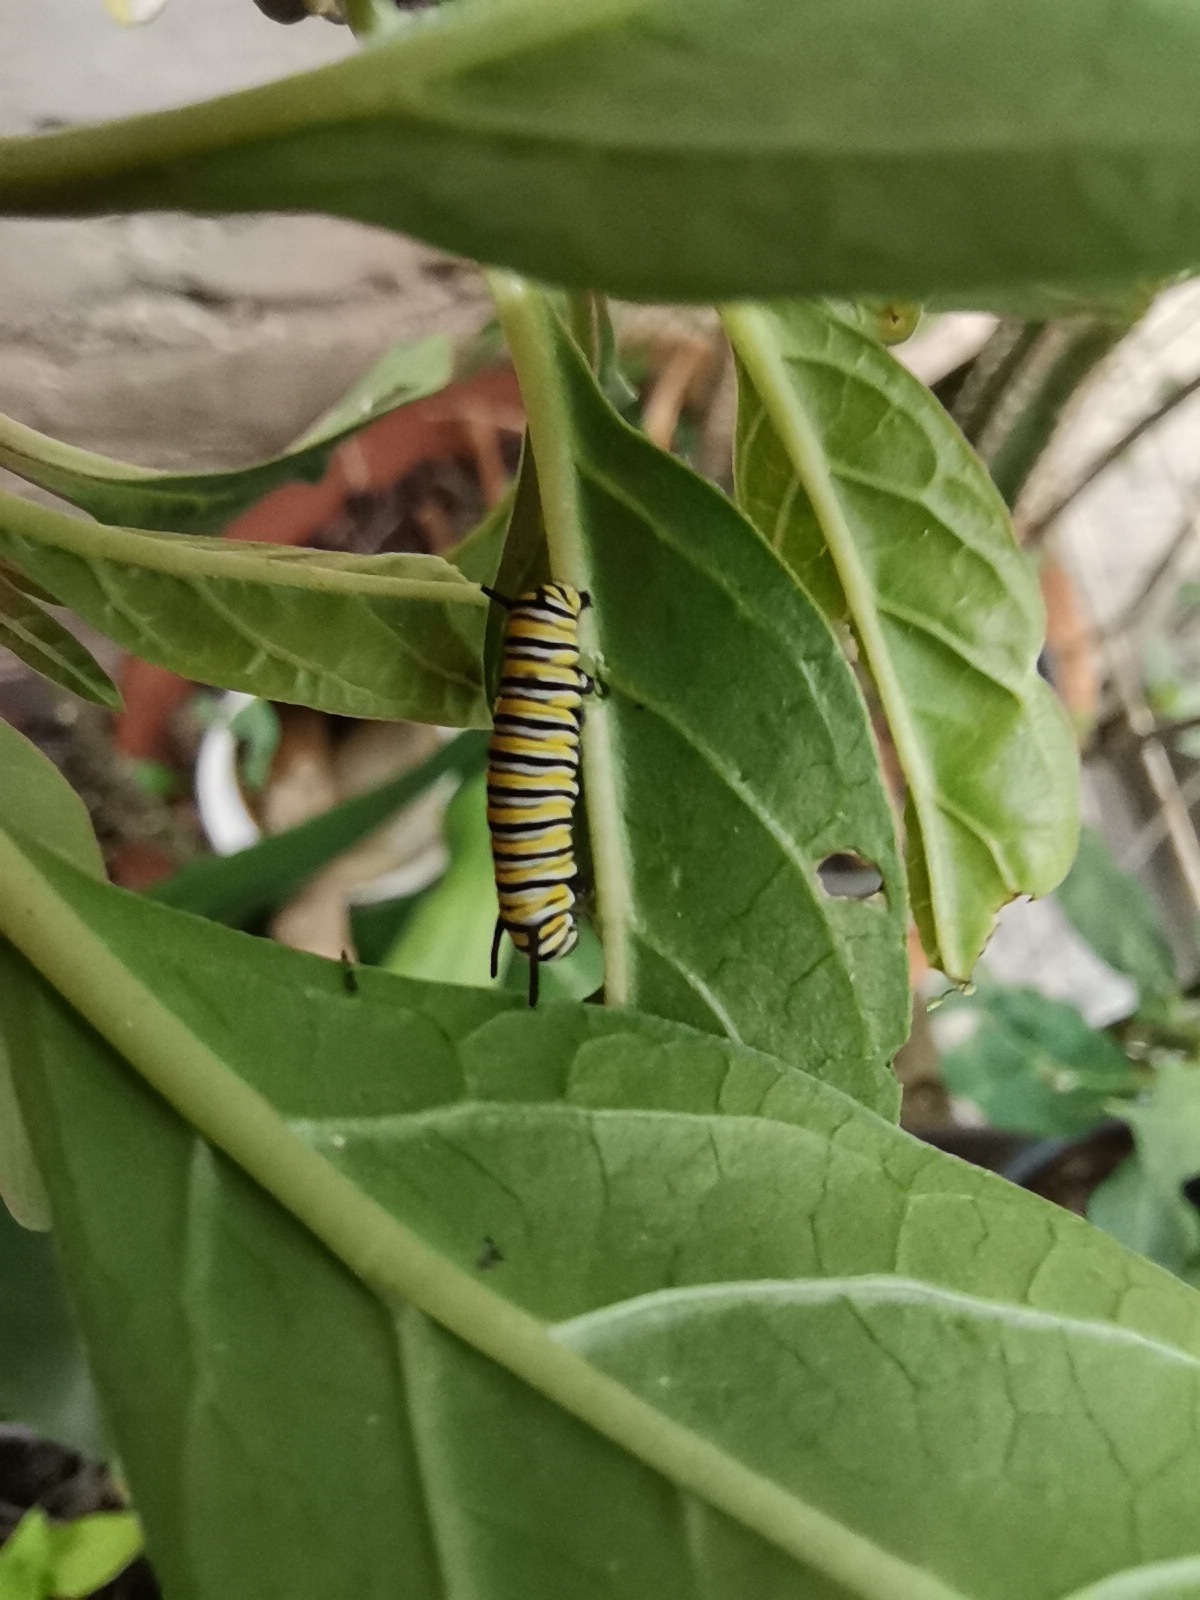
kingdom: Animalia
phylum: Arthropoda
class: Insecta
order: Lepidoptera
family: Nymphalidae
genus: Danaus
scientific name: Danaus plexippus
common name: Monarch
